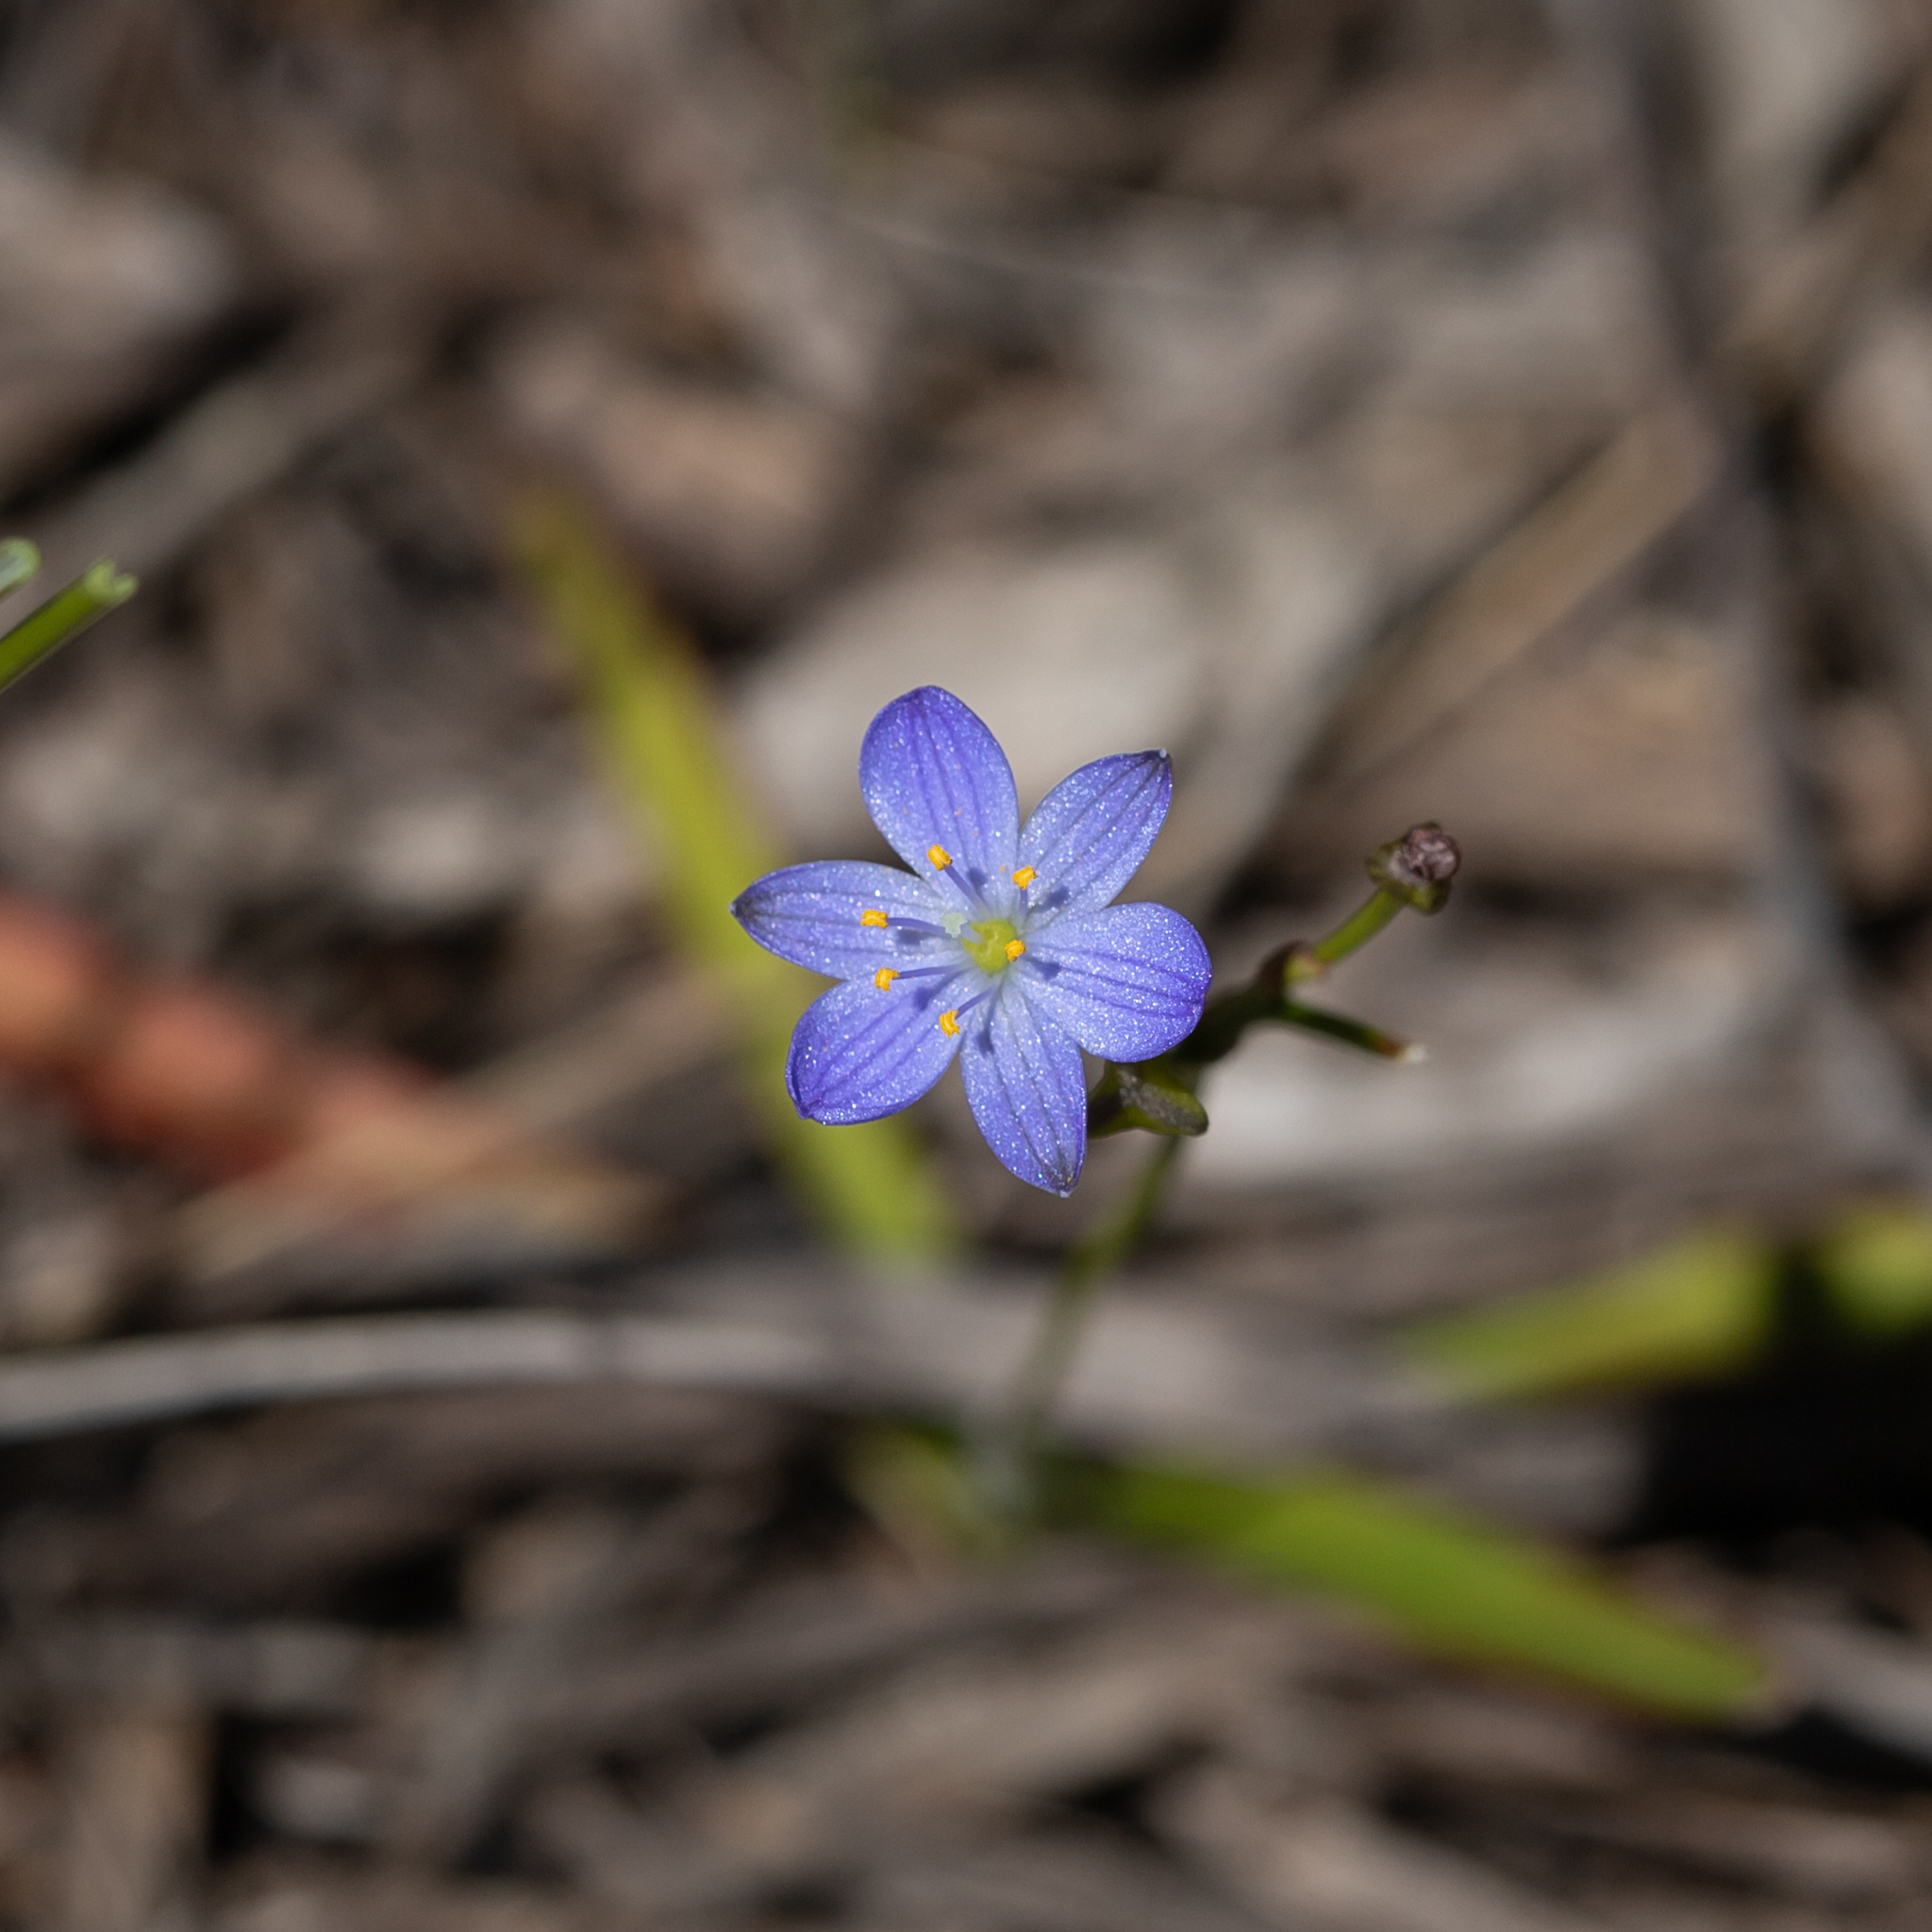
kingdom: Plantae
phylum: Tracheophyta
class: Liliopsida
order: Asparagales
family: Asphodelaceae
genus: Chamaescilla
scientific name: Chamaescilla corymbosa
